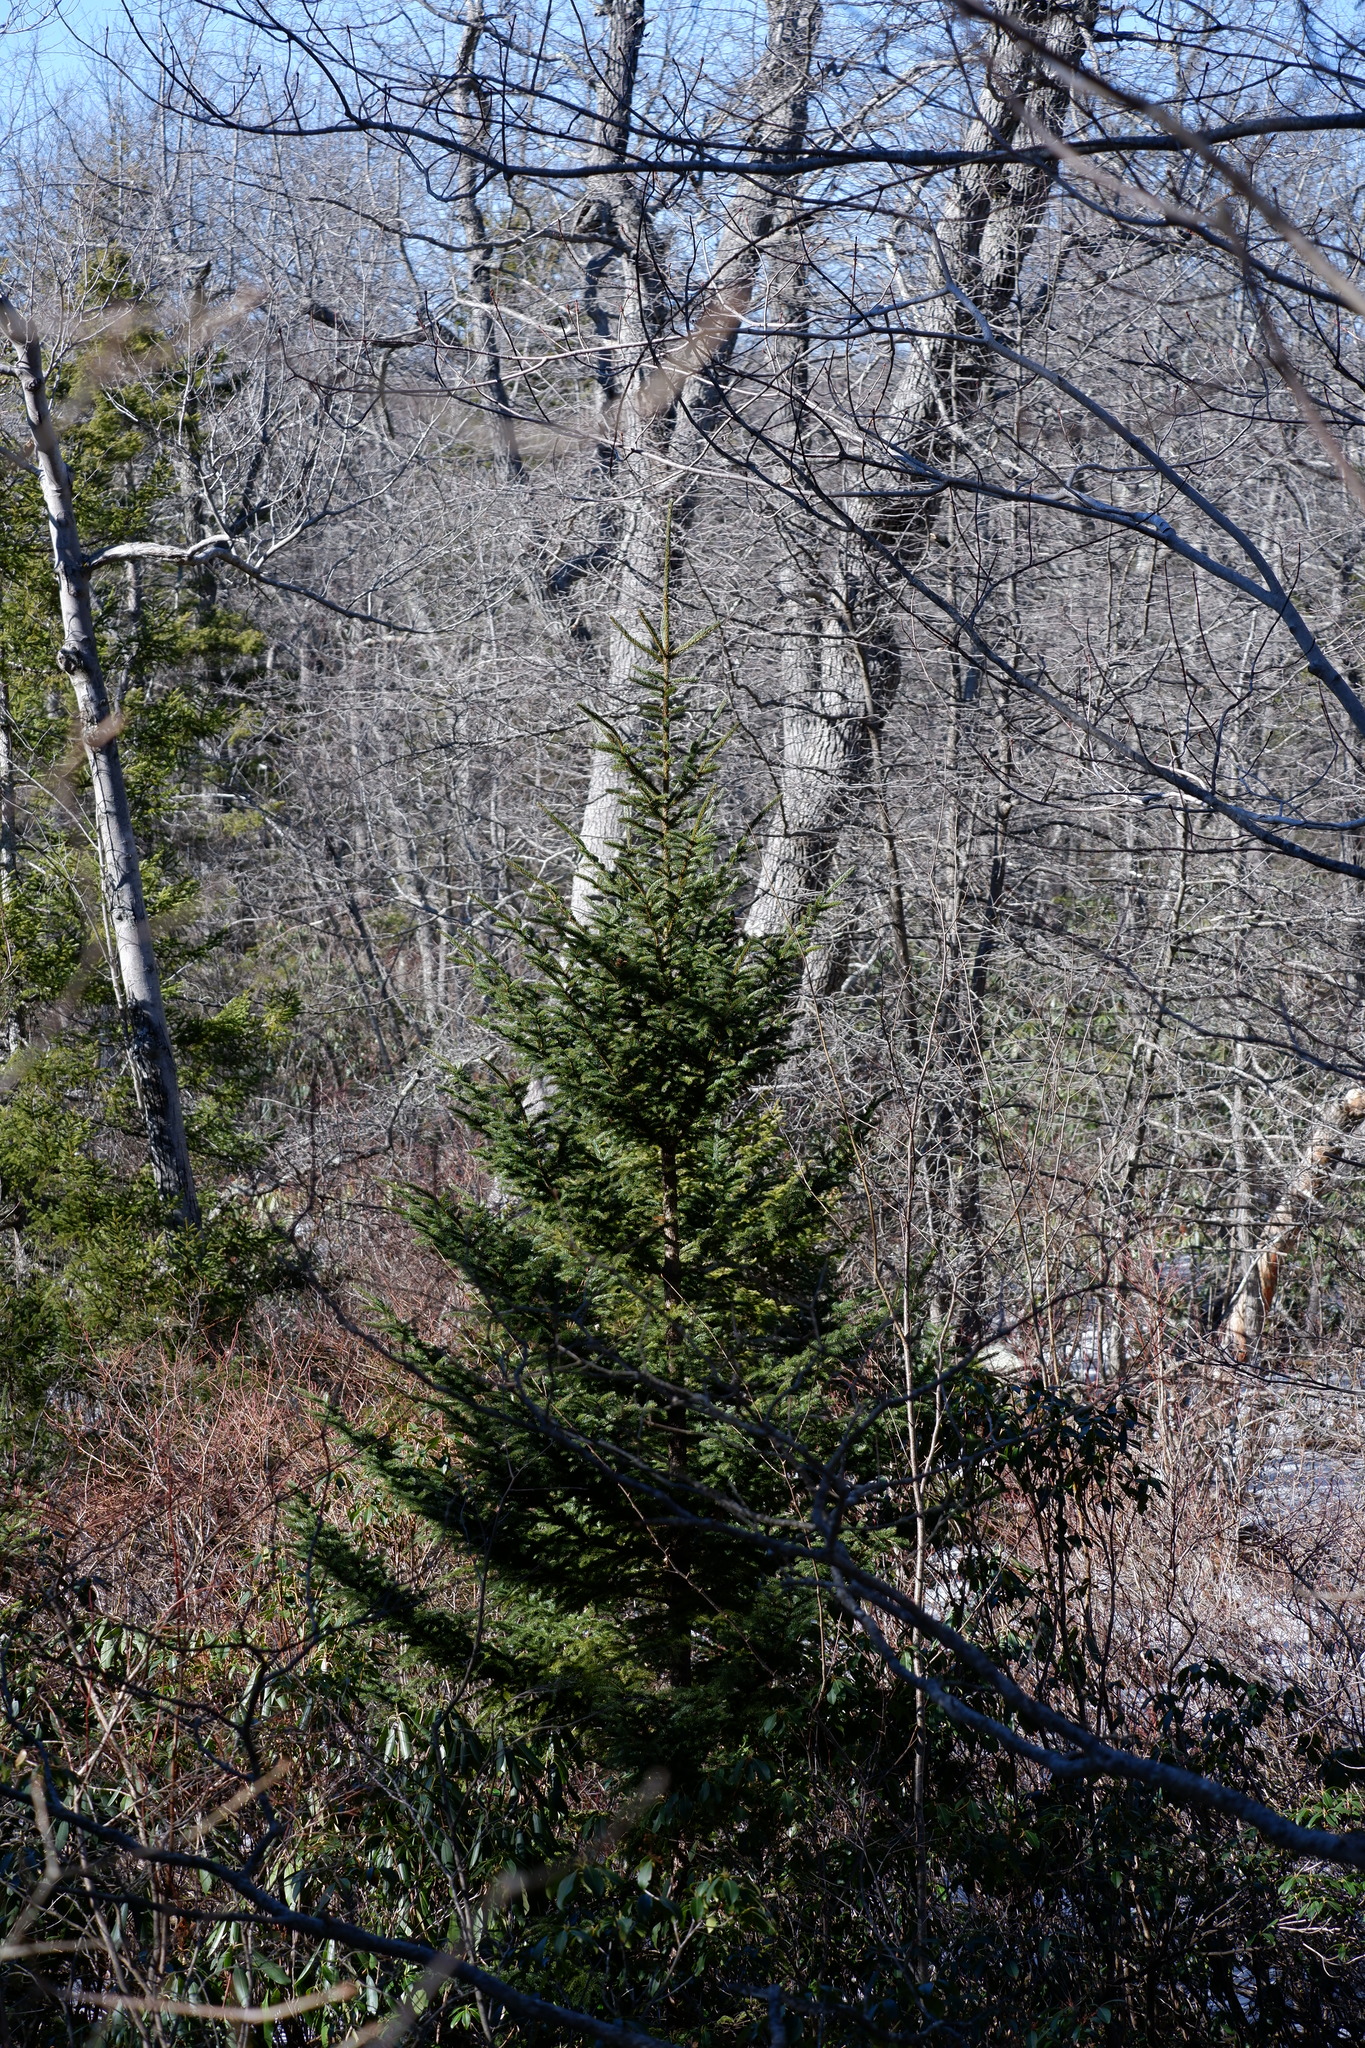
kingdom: Plantae
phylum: Tracheophyta
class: Pinopsida
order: Pinales
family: Pinaceae
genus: Picea
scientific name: Picea mariana
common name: Black spruce
